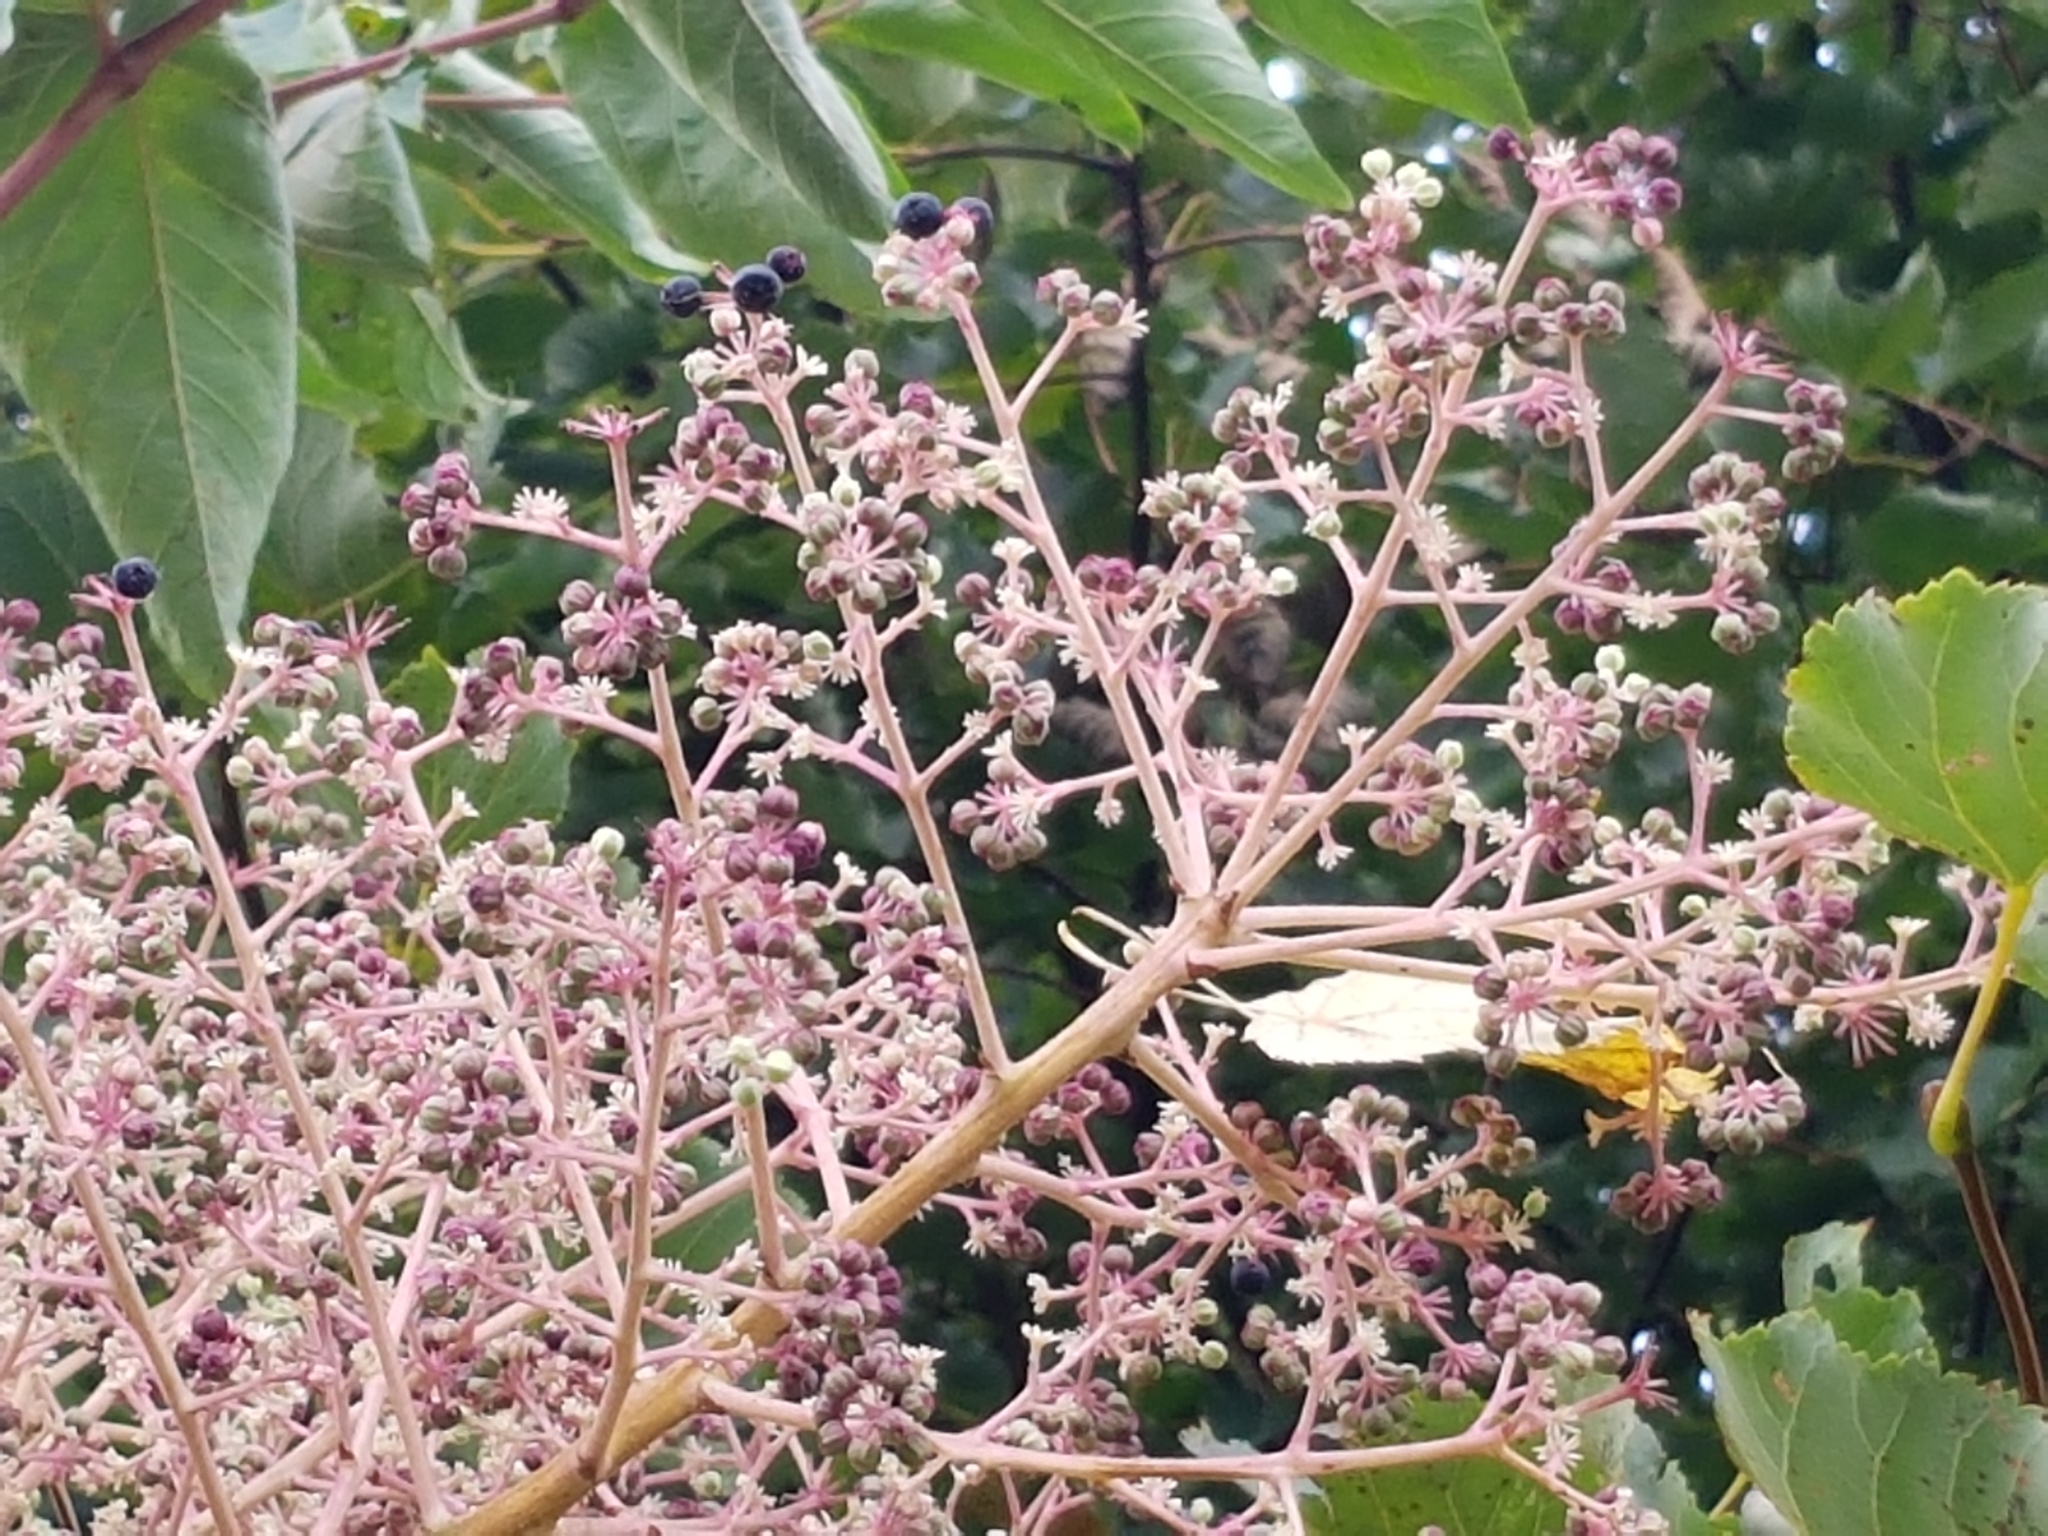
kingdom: Plantae
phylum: Tracheophyta
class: Magnoliopsida
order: Apiales
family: Araliaceae
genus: Aralia
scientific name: Aralia elata
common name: Japanese angelica-tree
